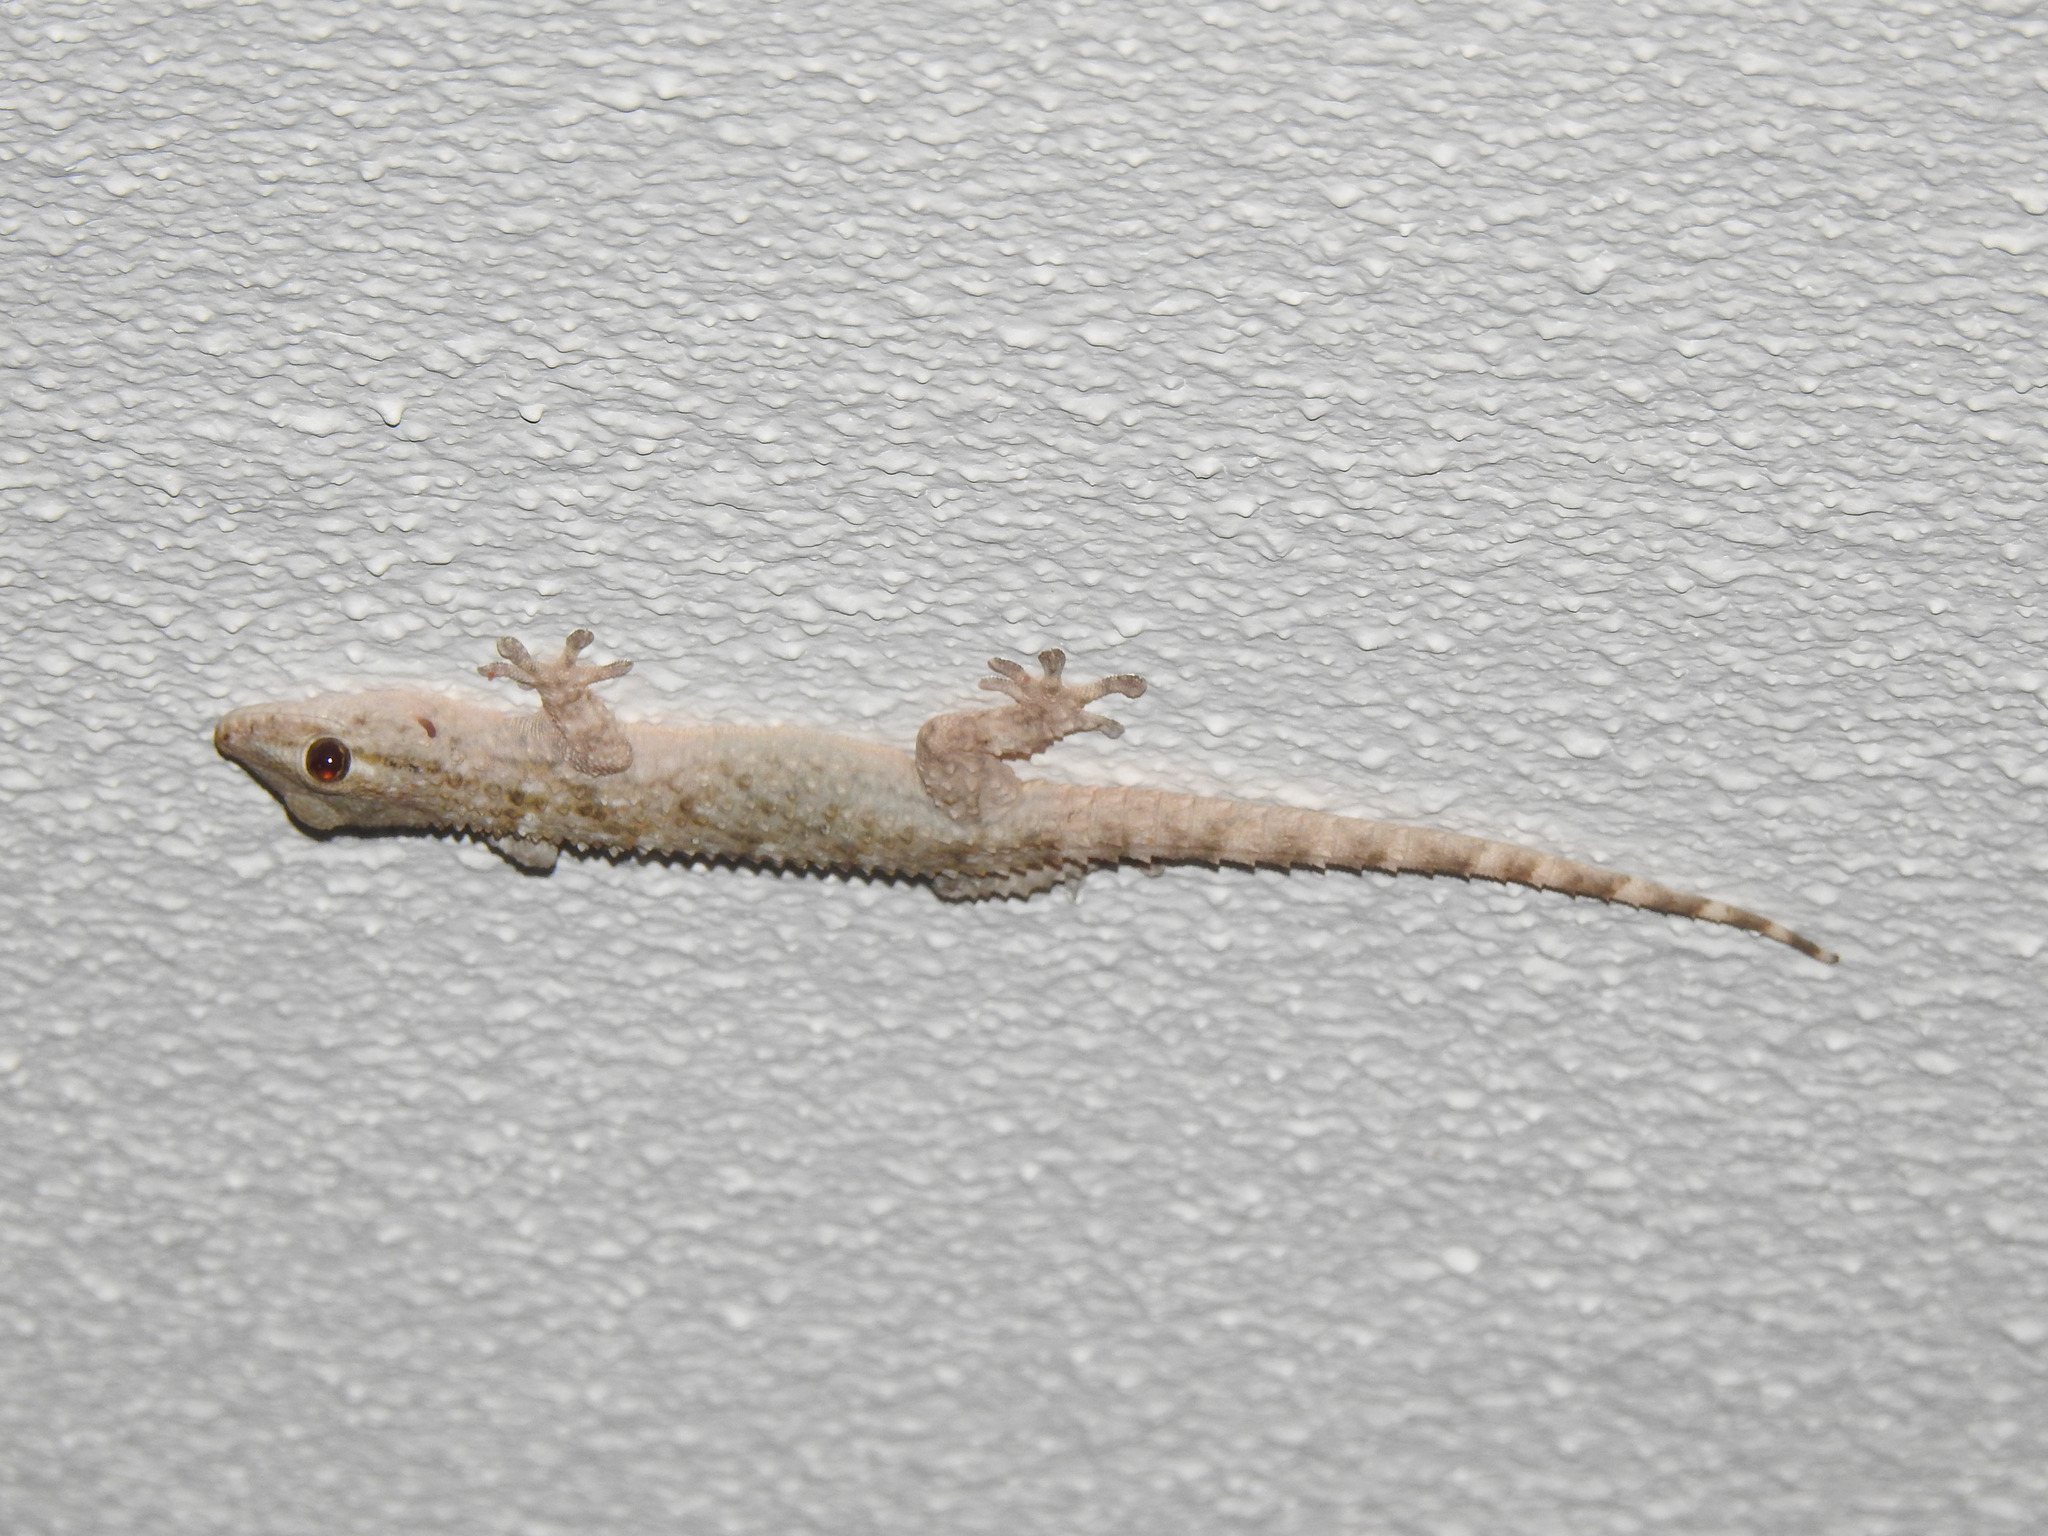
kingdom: Animalia
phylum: Chordata
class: Squamata
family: Phyllodactylidae
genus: Tarentola
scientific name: Tarentola mauritanica
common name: Moorish gecko
